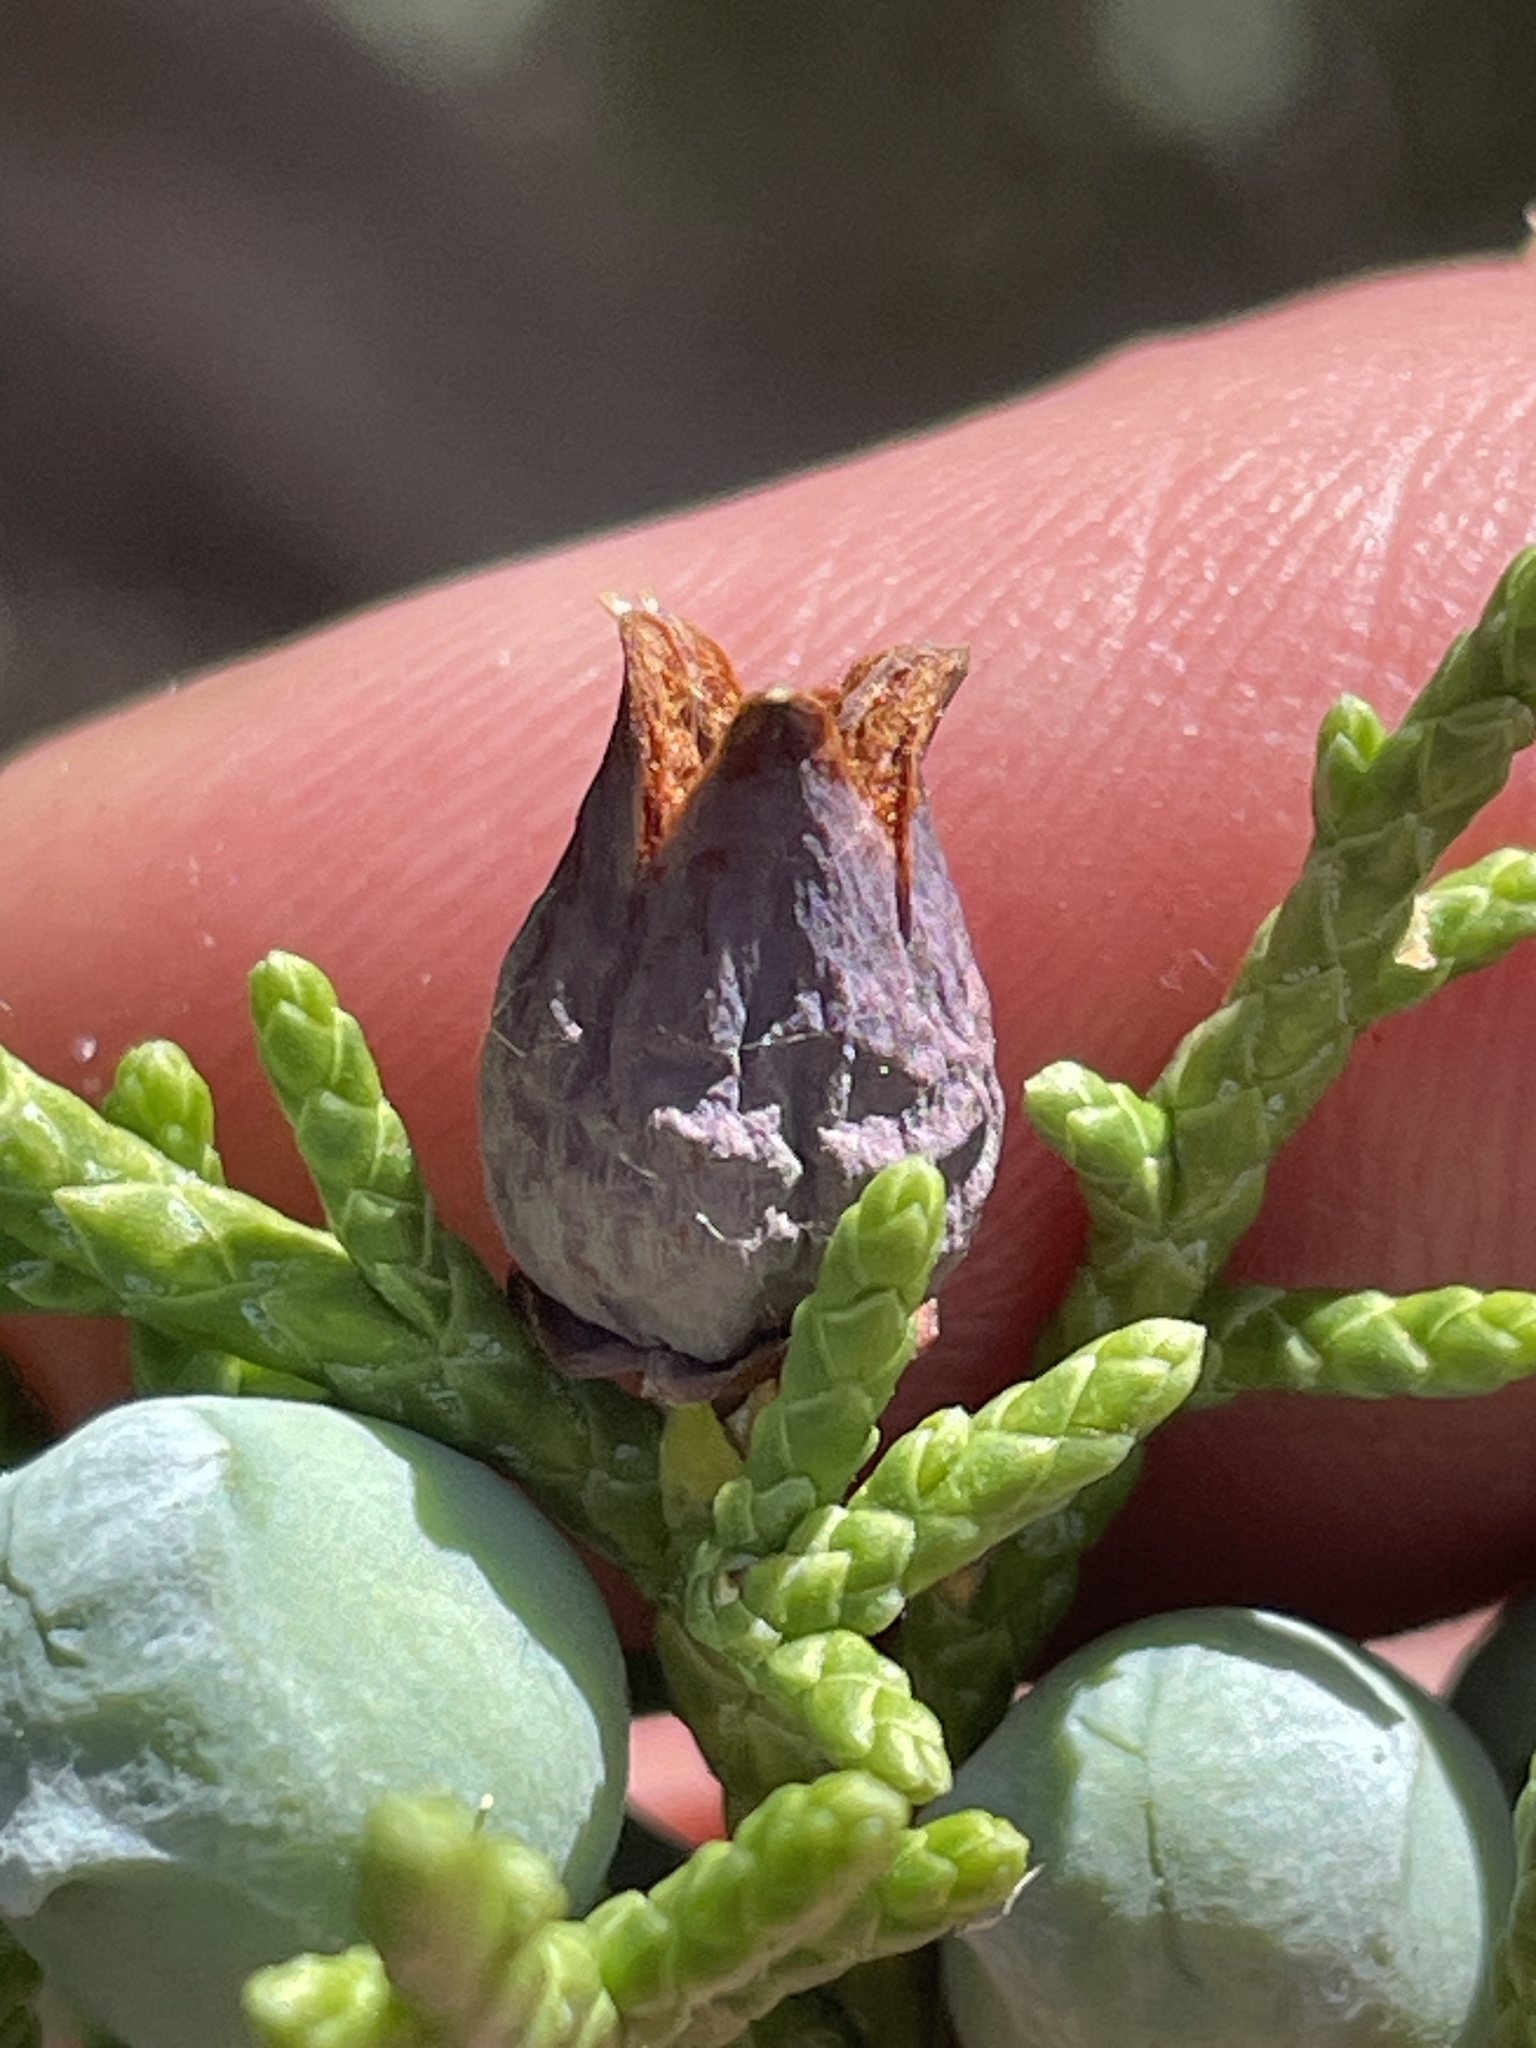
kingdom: Animalia
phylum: Arthropoda
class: Insecta
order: Diptera
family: Cecidomyiidae
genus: Walshomyia
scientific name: Walshomyia juniperina
